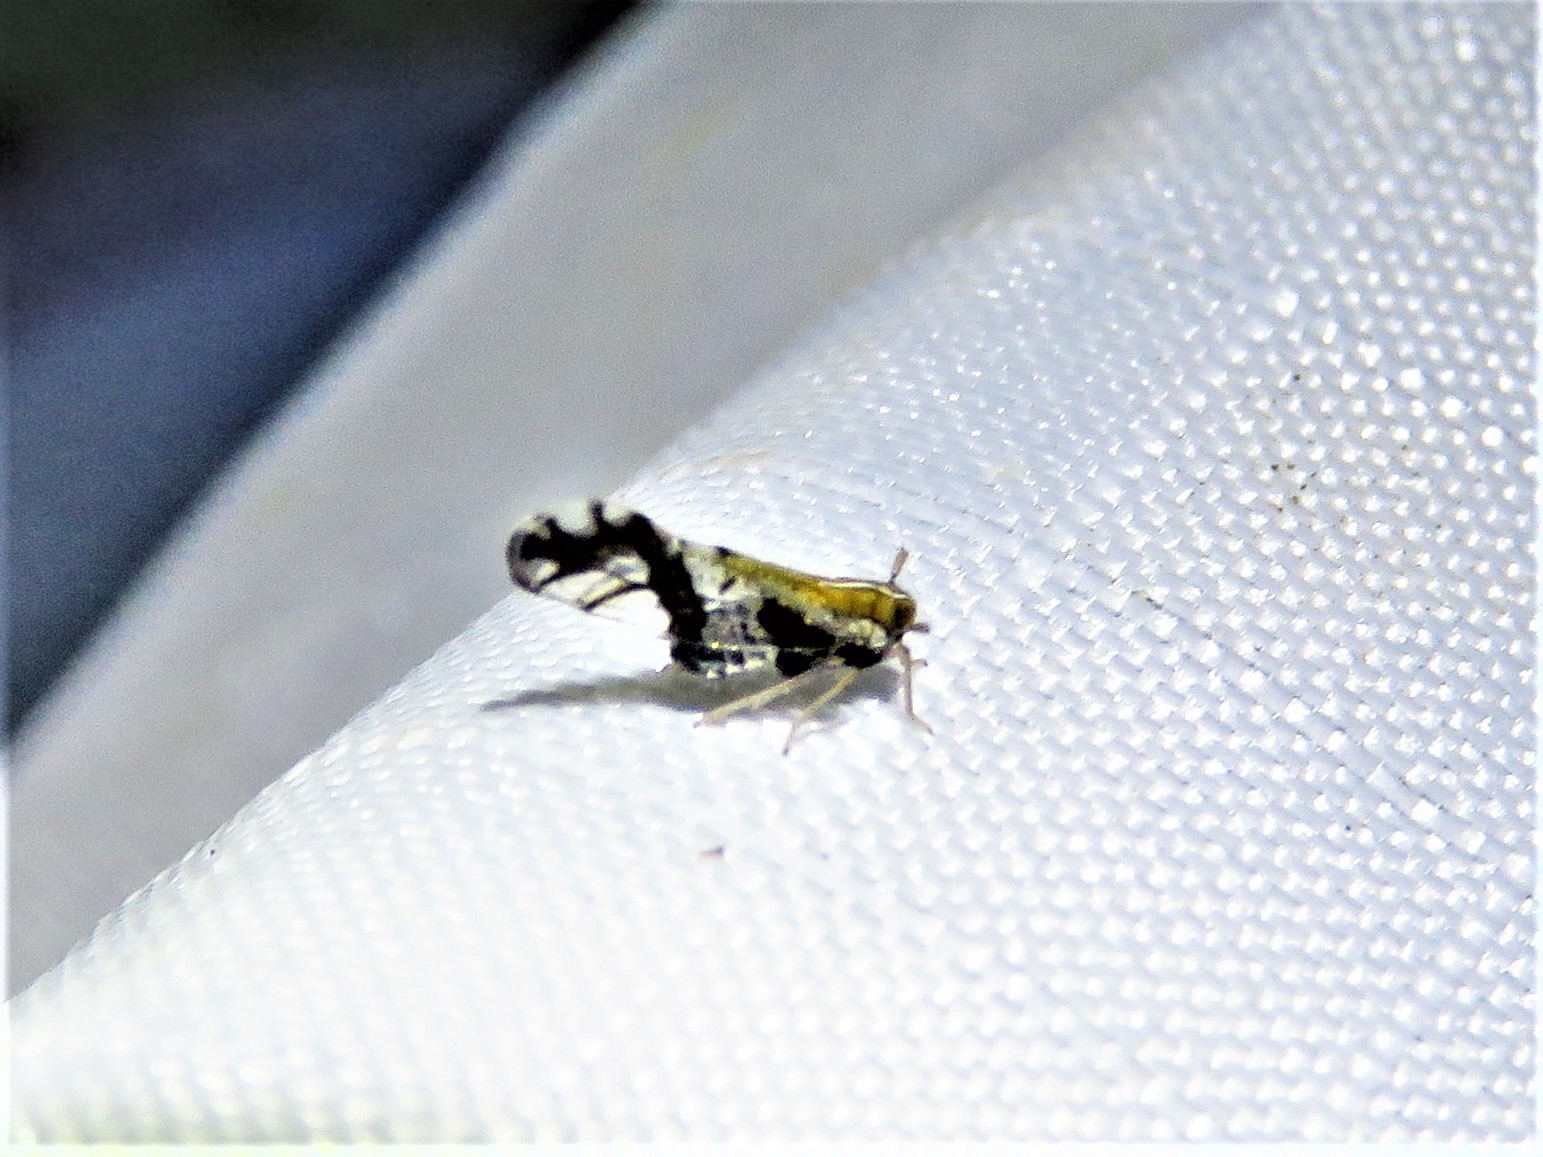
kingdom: Animalia
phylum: Arthropoda
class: Insecta
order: Hemiptera
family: Delphacidae
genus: Liburniella
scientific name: Liburniella ornata
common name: Ornate planthopper
